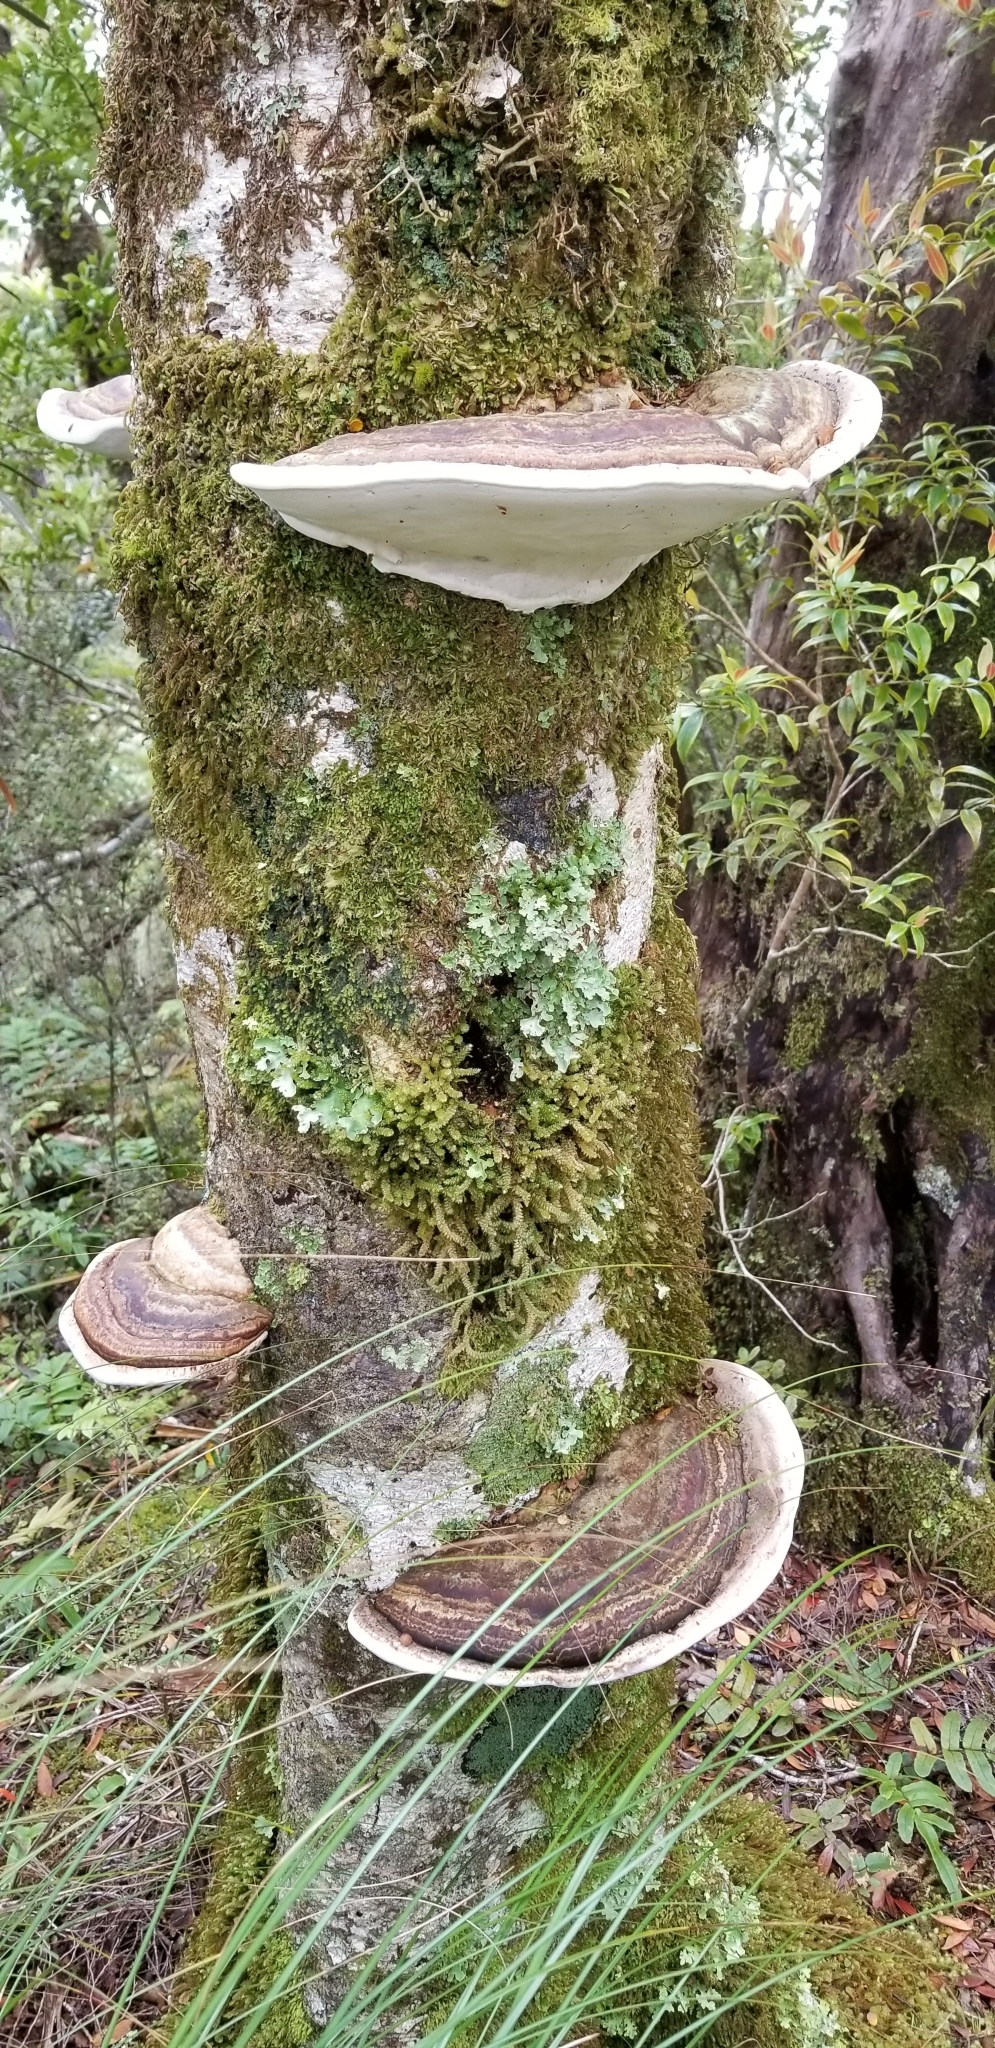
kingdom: Fungi
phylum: Basidiomycota
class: Agaricomycetes
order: Polyporales
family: Fomitopsidaceae
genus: Pilatoporus
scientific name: Pilatoporus hemitephrus
